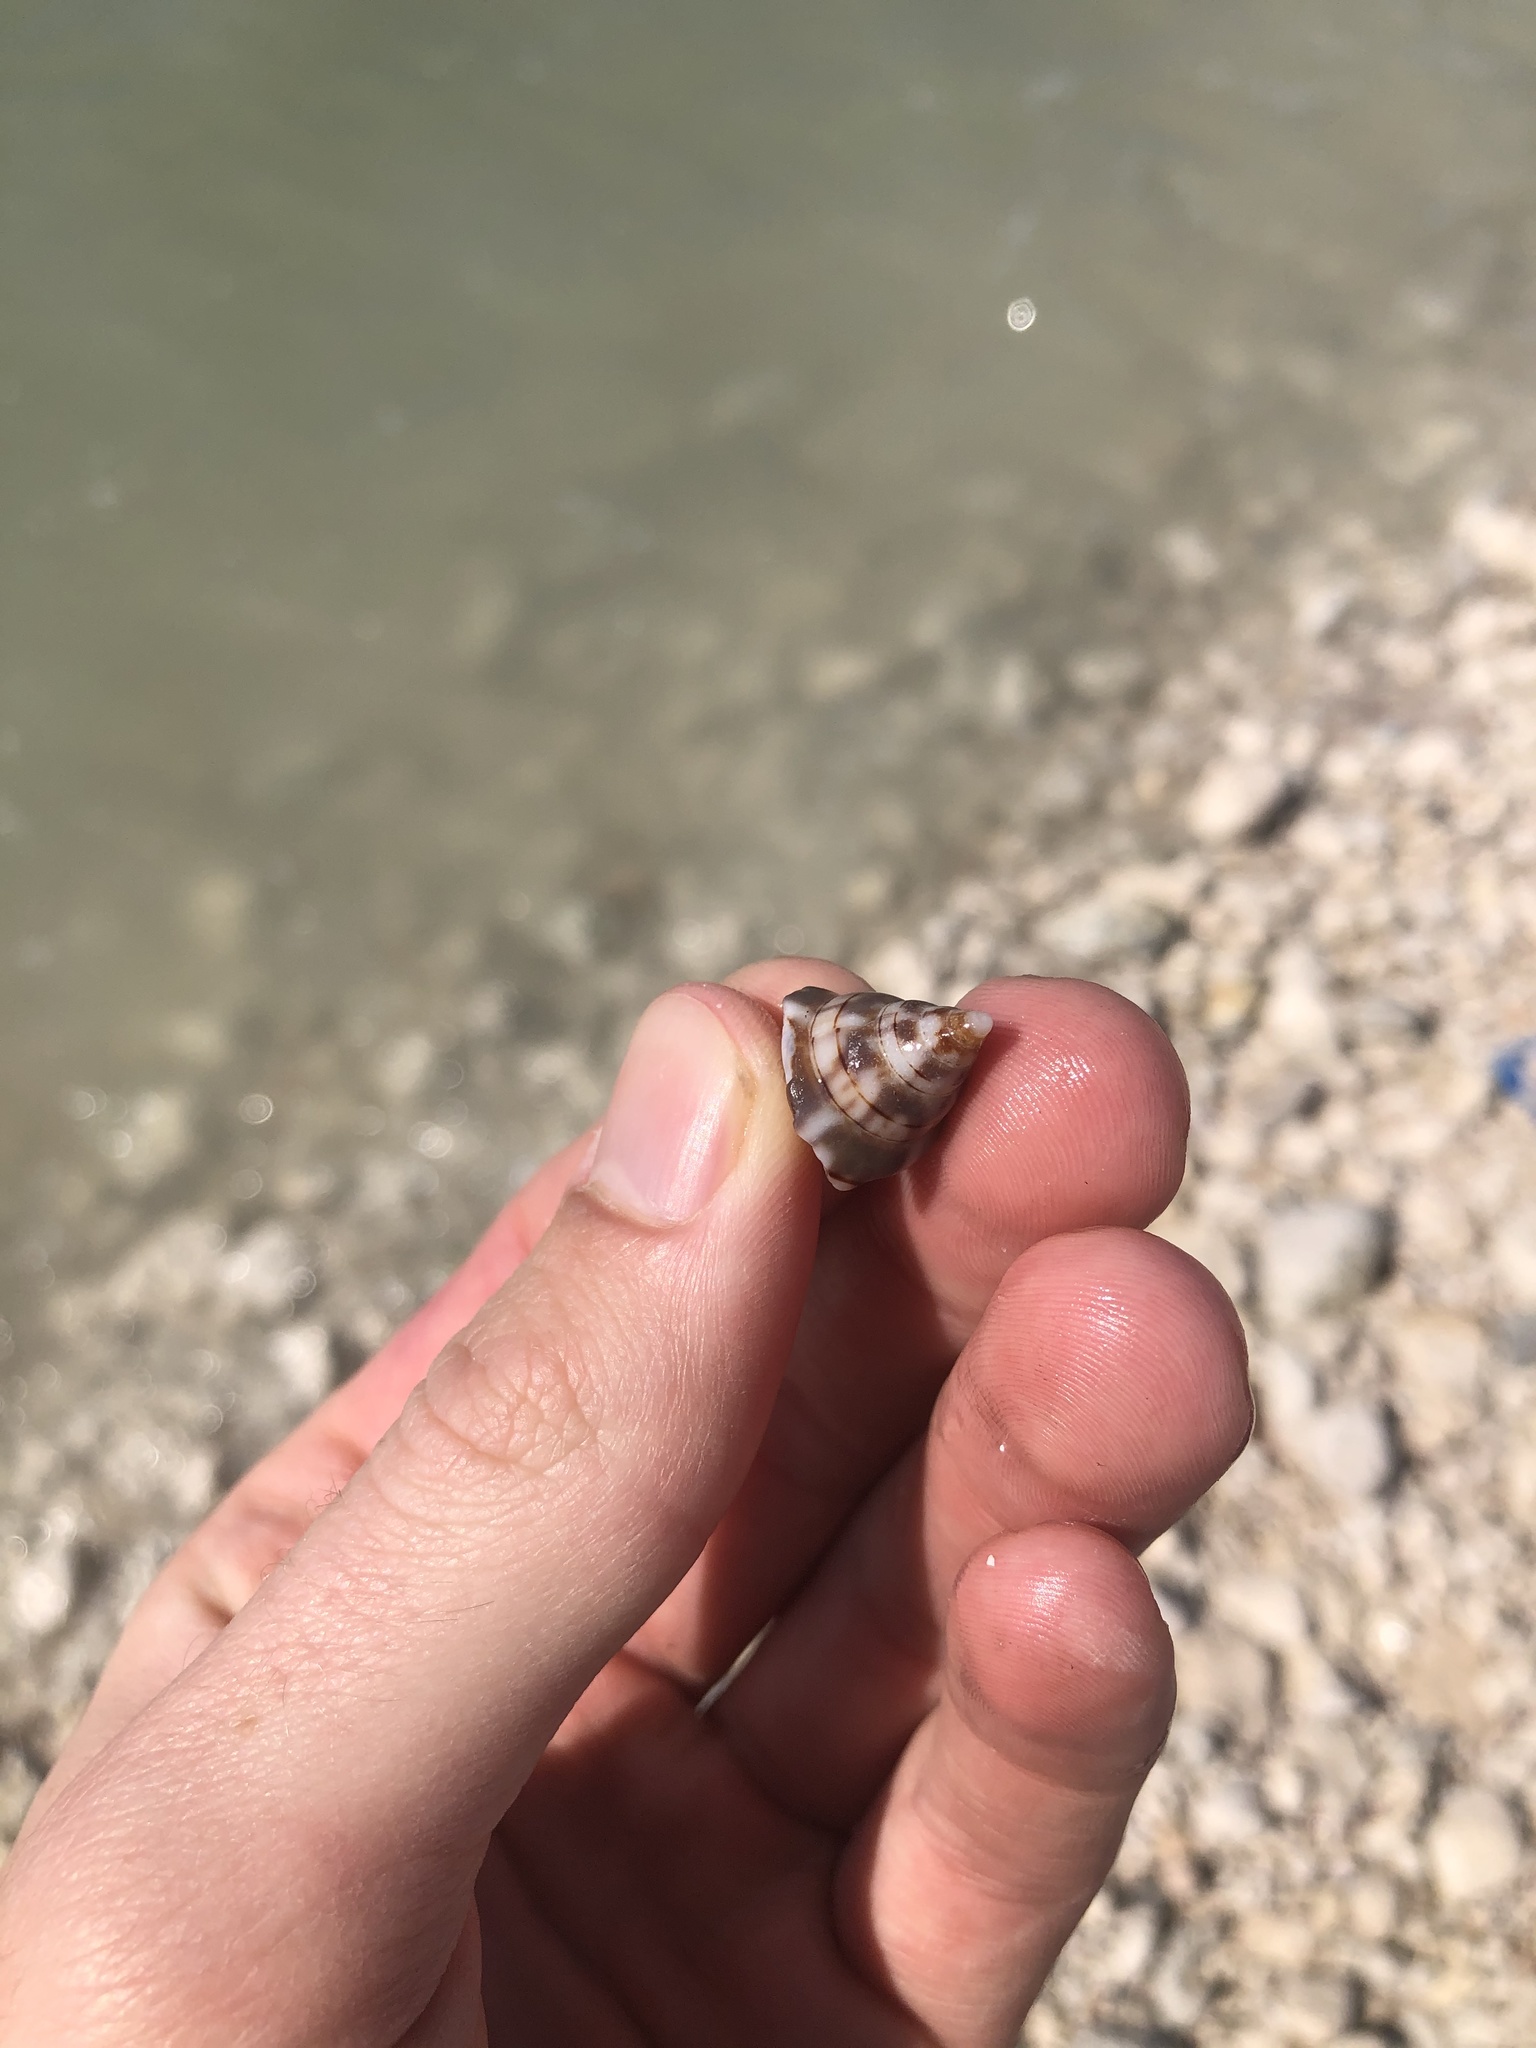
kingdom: Animalia
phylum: Mollusca
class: Gastropoda
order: Neogastropoda
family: Fasciolariidae
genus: Cinctura
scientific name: Cinctura hunteria
